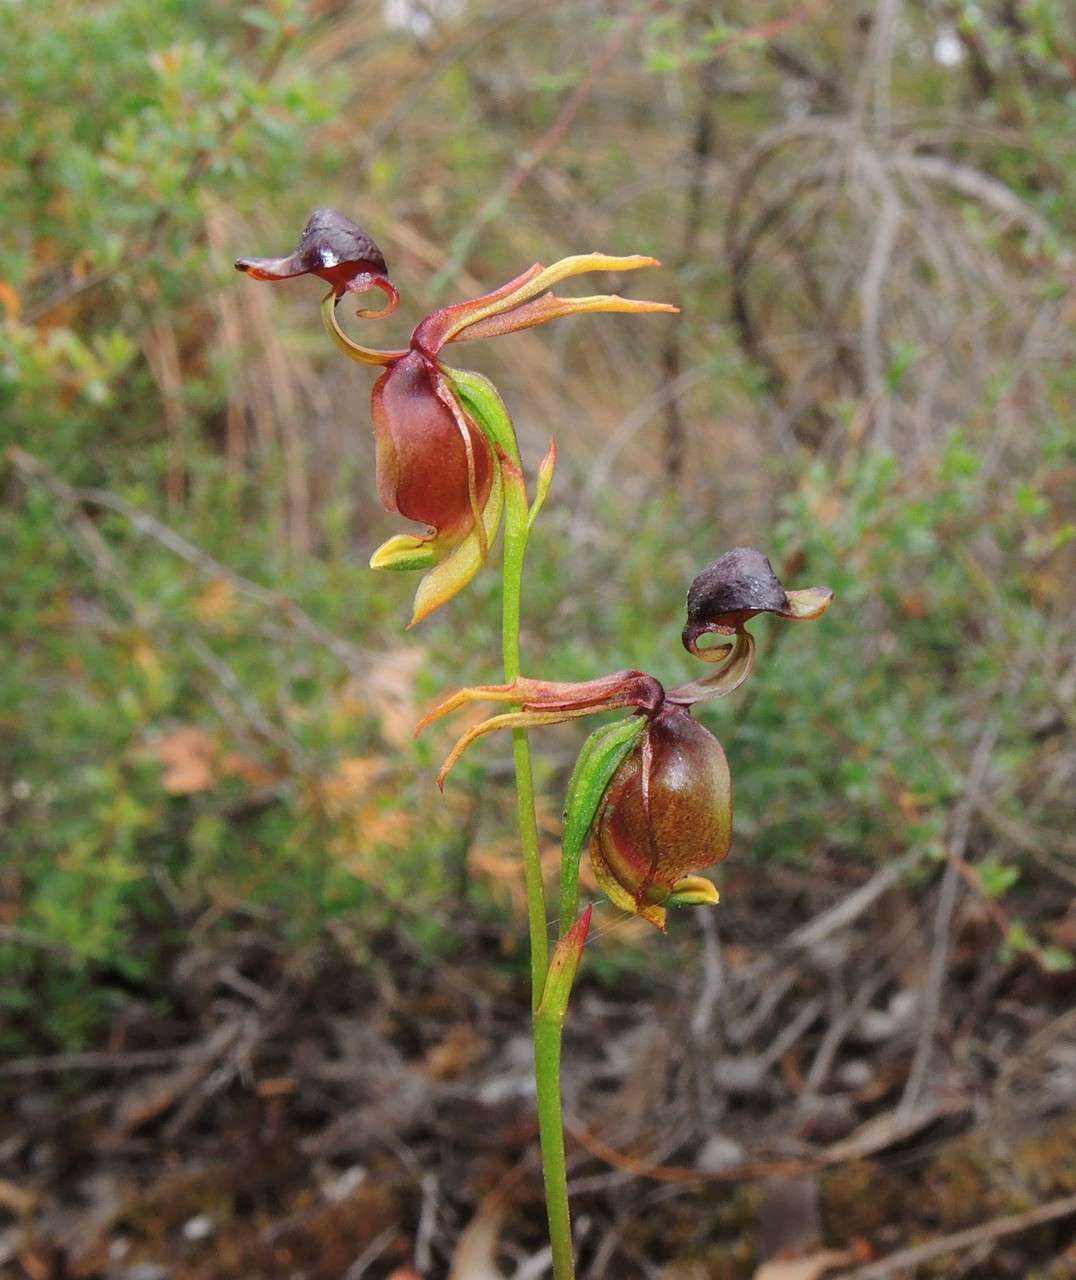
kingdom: Plantae
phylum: Tracheophyta
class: Liliopsida
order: Asparagales
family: Orchidaceae
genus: Caleana
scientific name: Caleana major
